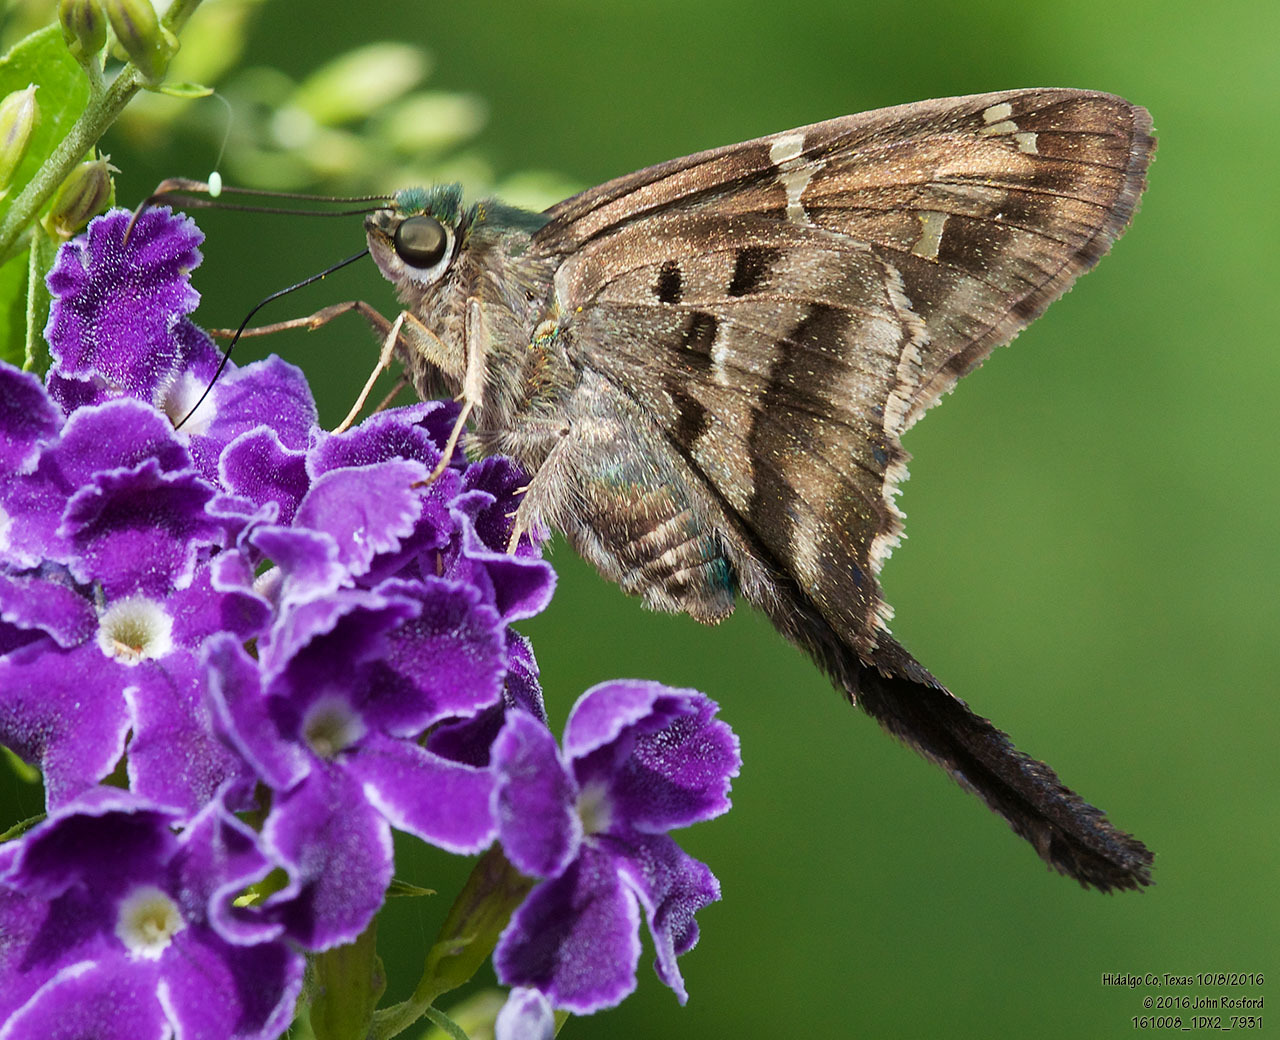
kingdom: Animalia
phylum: Arthropoda
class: Insecta
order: Lepidoptera
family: Hesperiidae
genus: Urbanus
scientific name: Urbanus proteus
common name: Long-tailed skipper
